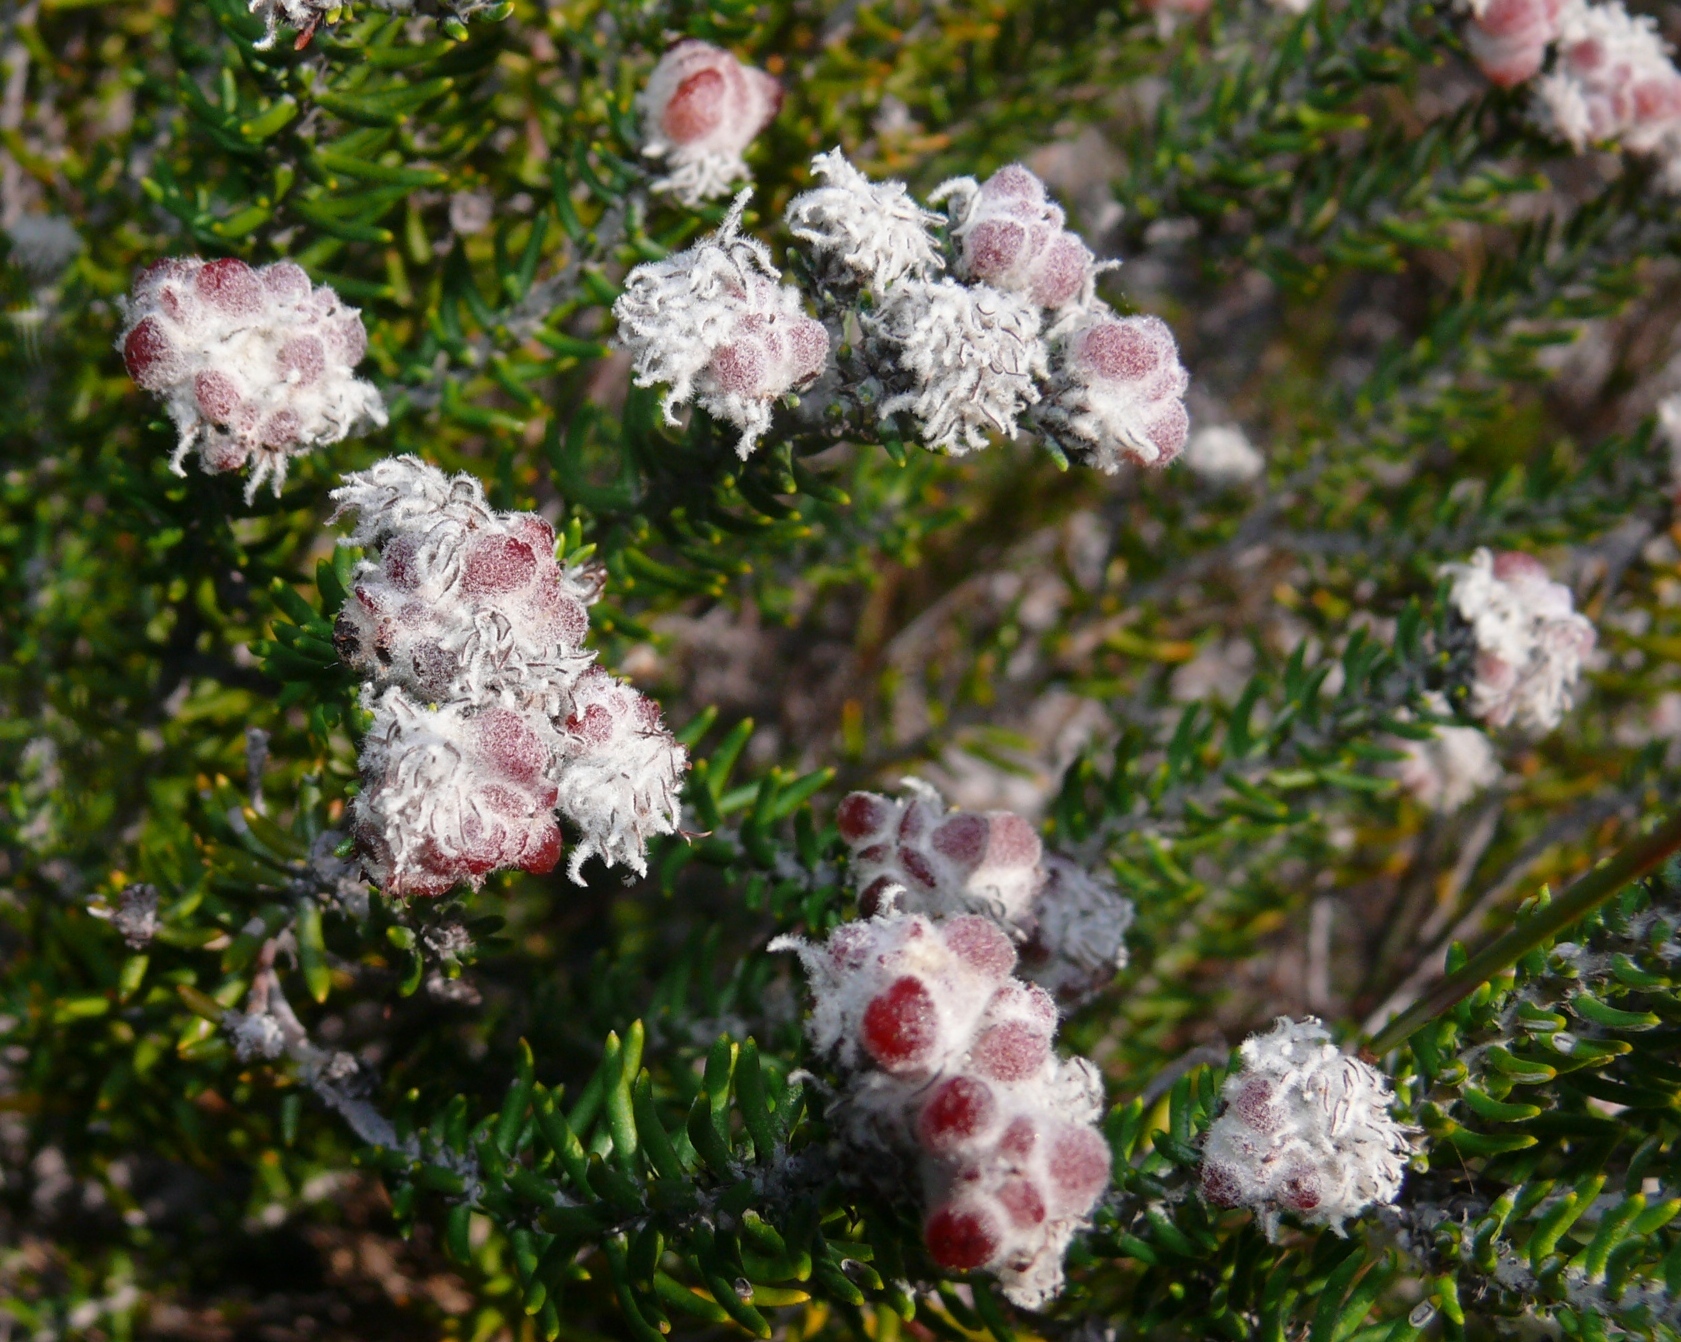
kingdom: Plantae
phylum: Tracheophyta
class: Magnoliopsida
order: Rosales
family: Rhamnaceae
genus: Trichocephalus
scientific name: Trichocephalus stipularis
